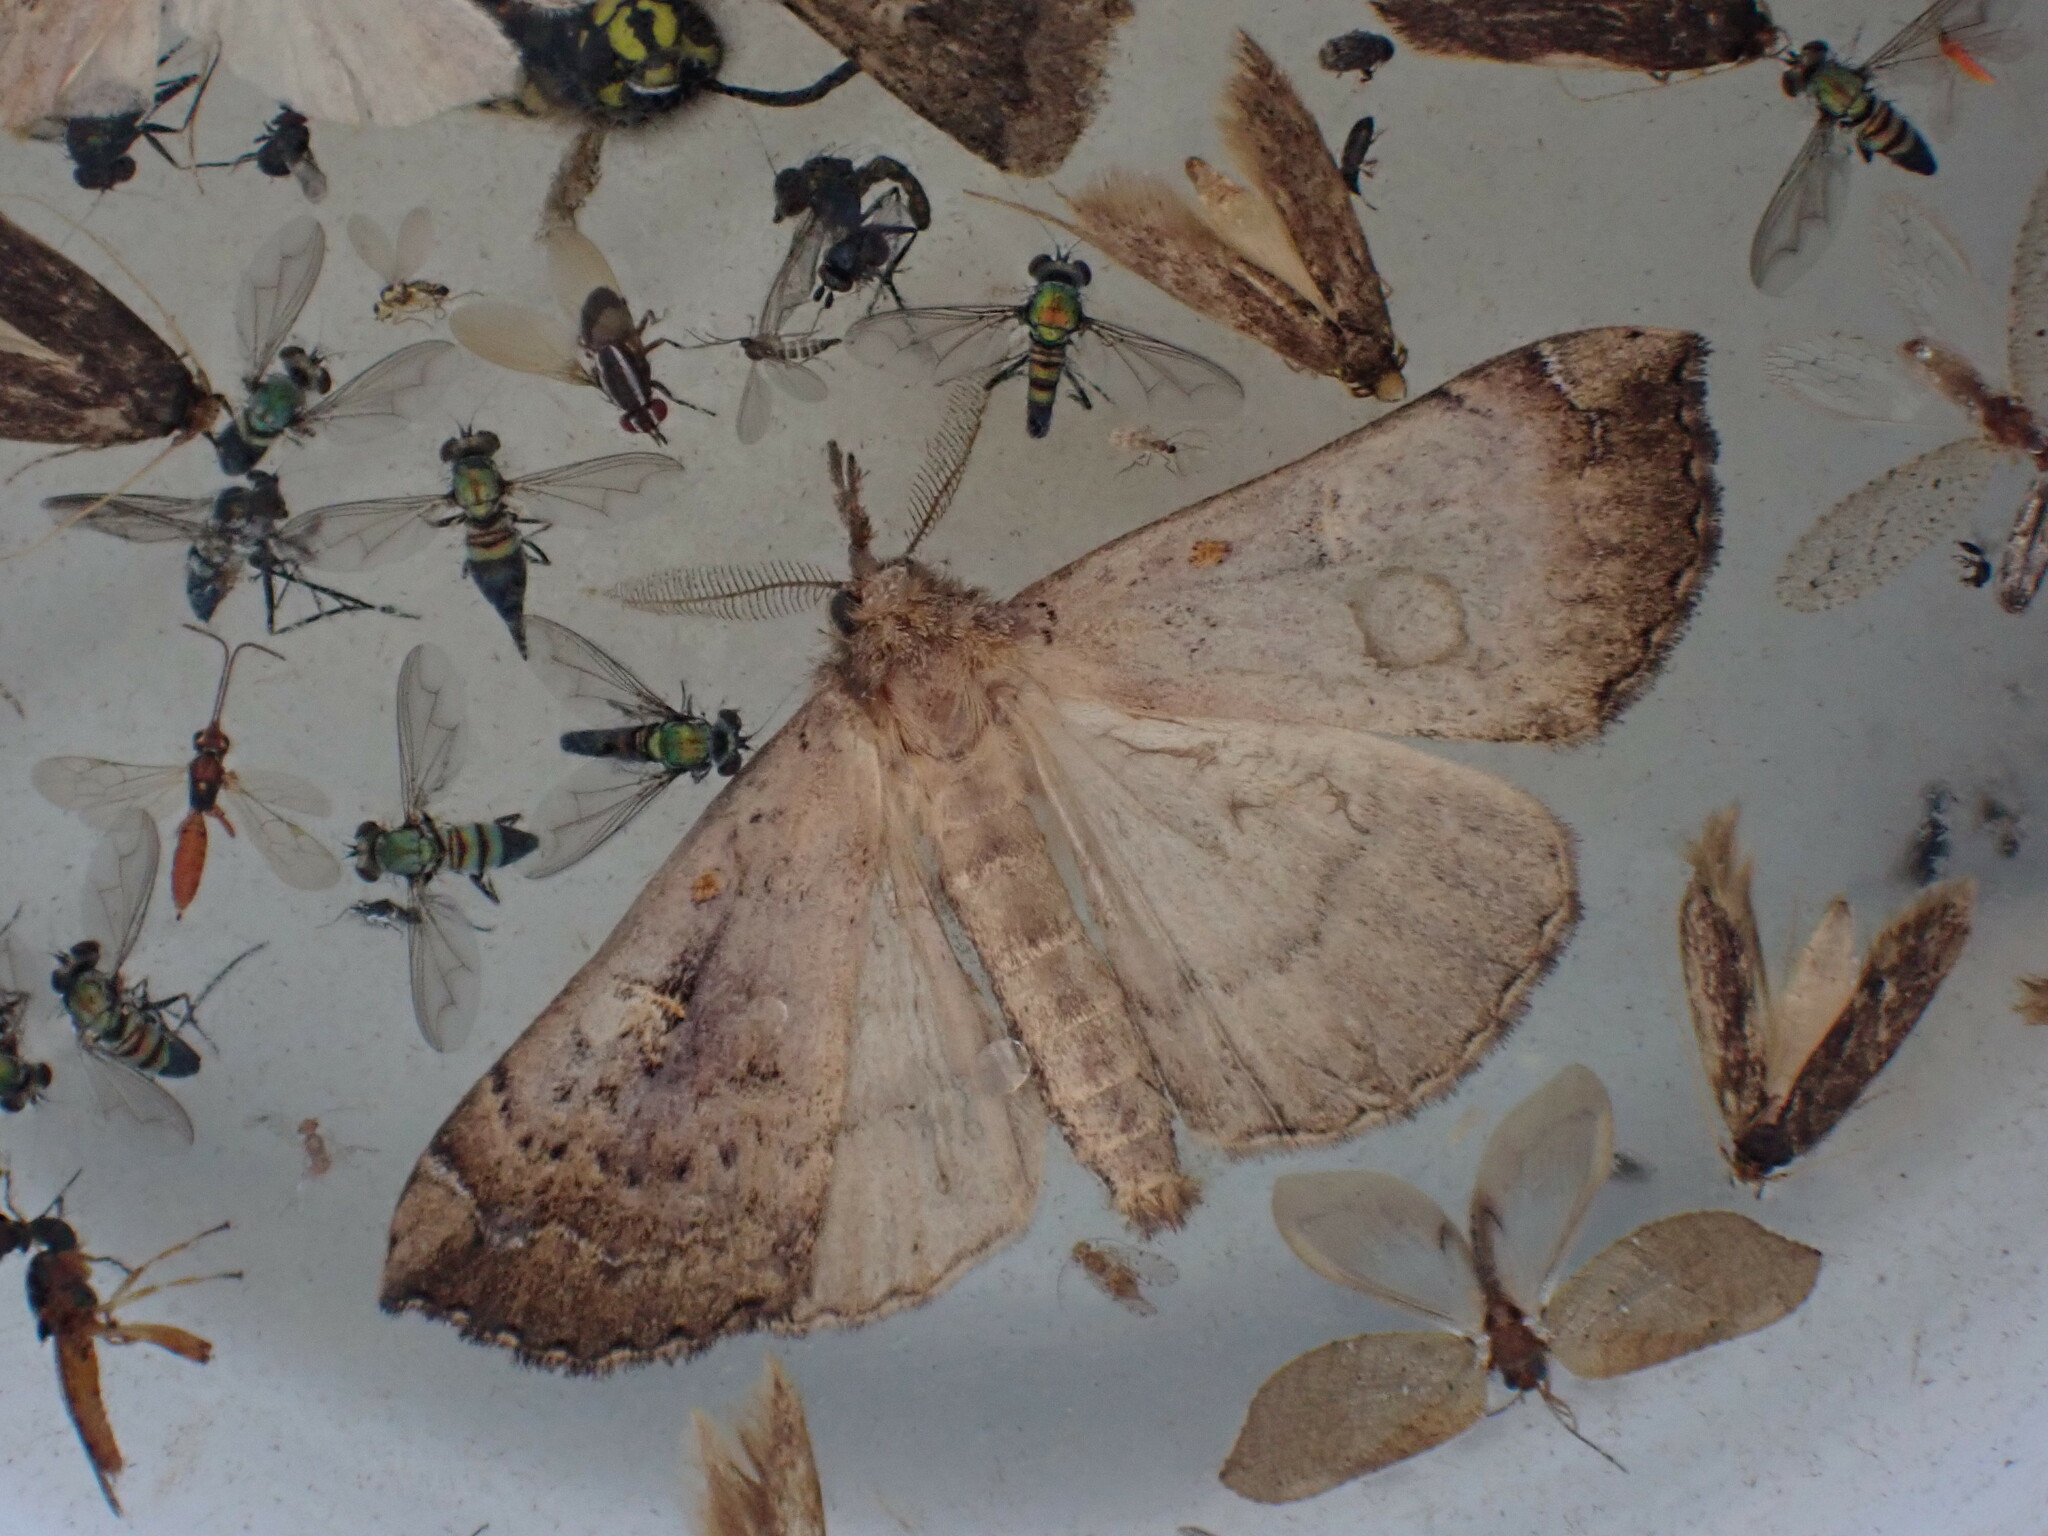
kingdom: Animalia
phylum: Arthropoda
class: Insecta
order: Lepidoptera
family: Erebidae
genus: Rhapsa
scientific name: Rhapsa scotosialis
